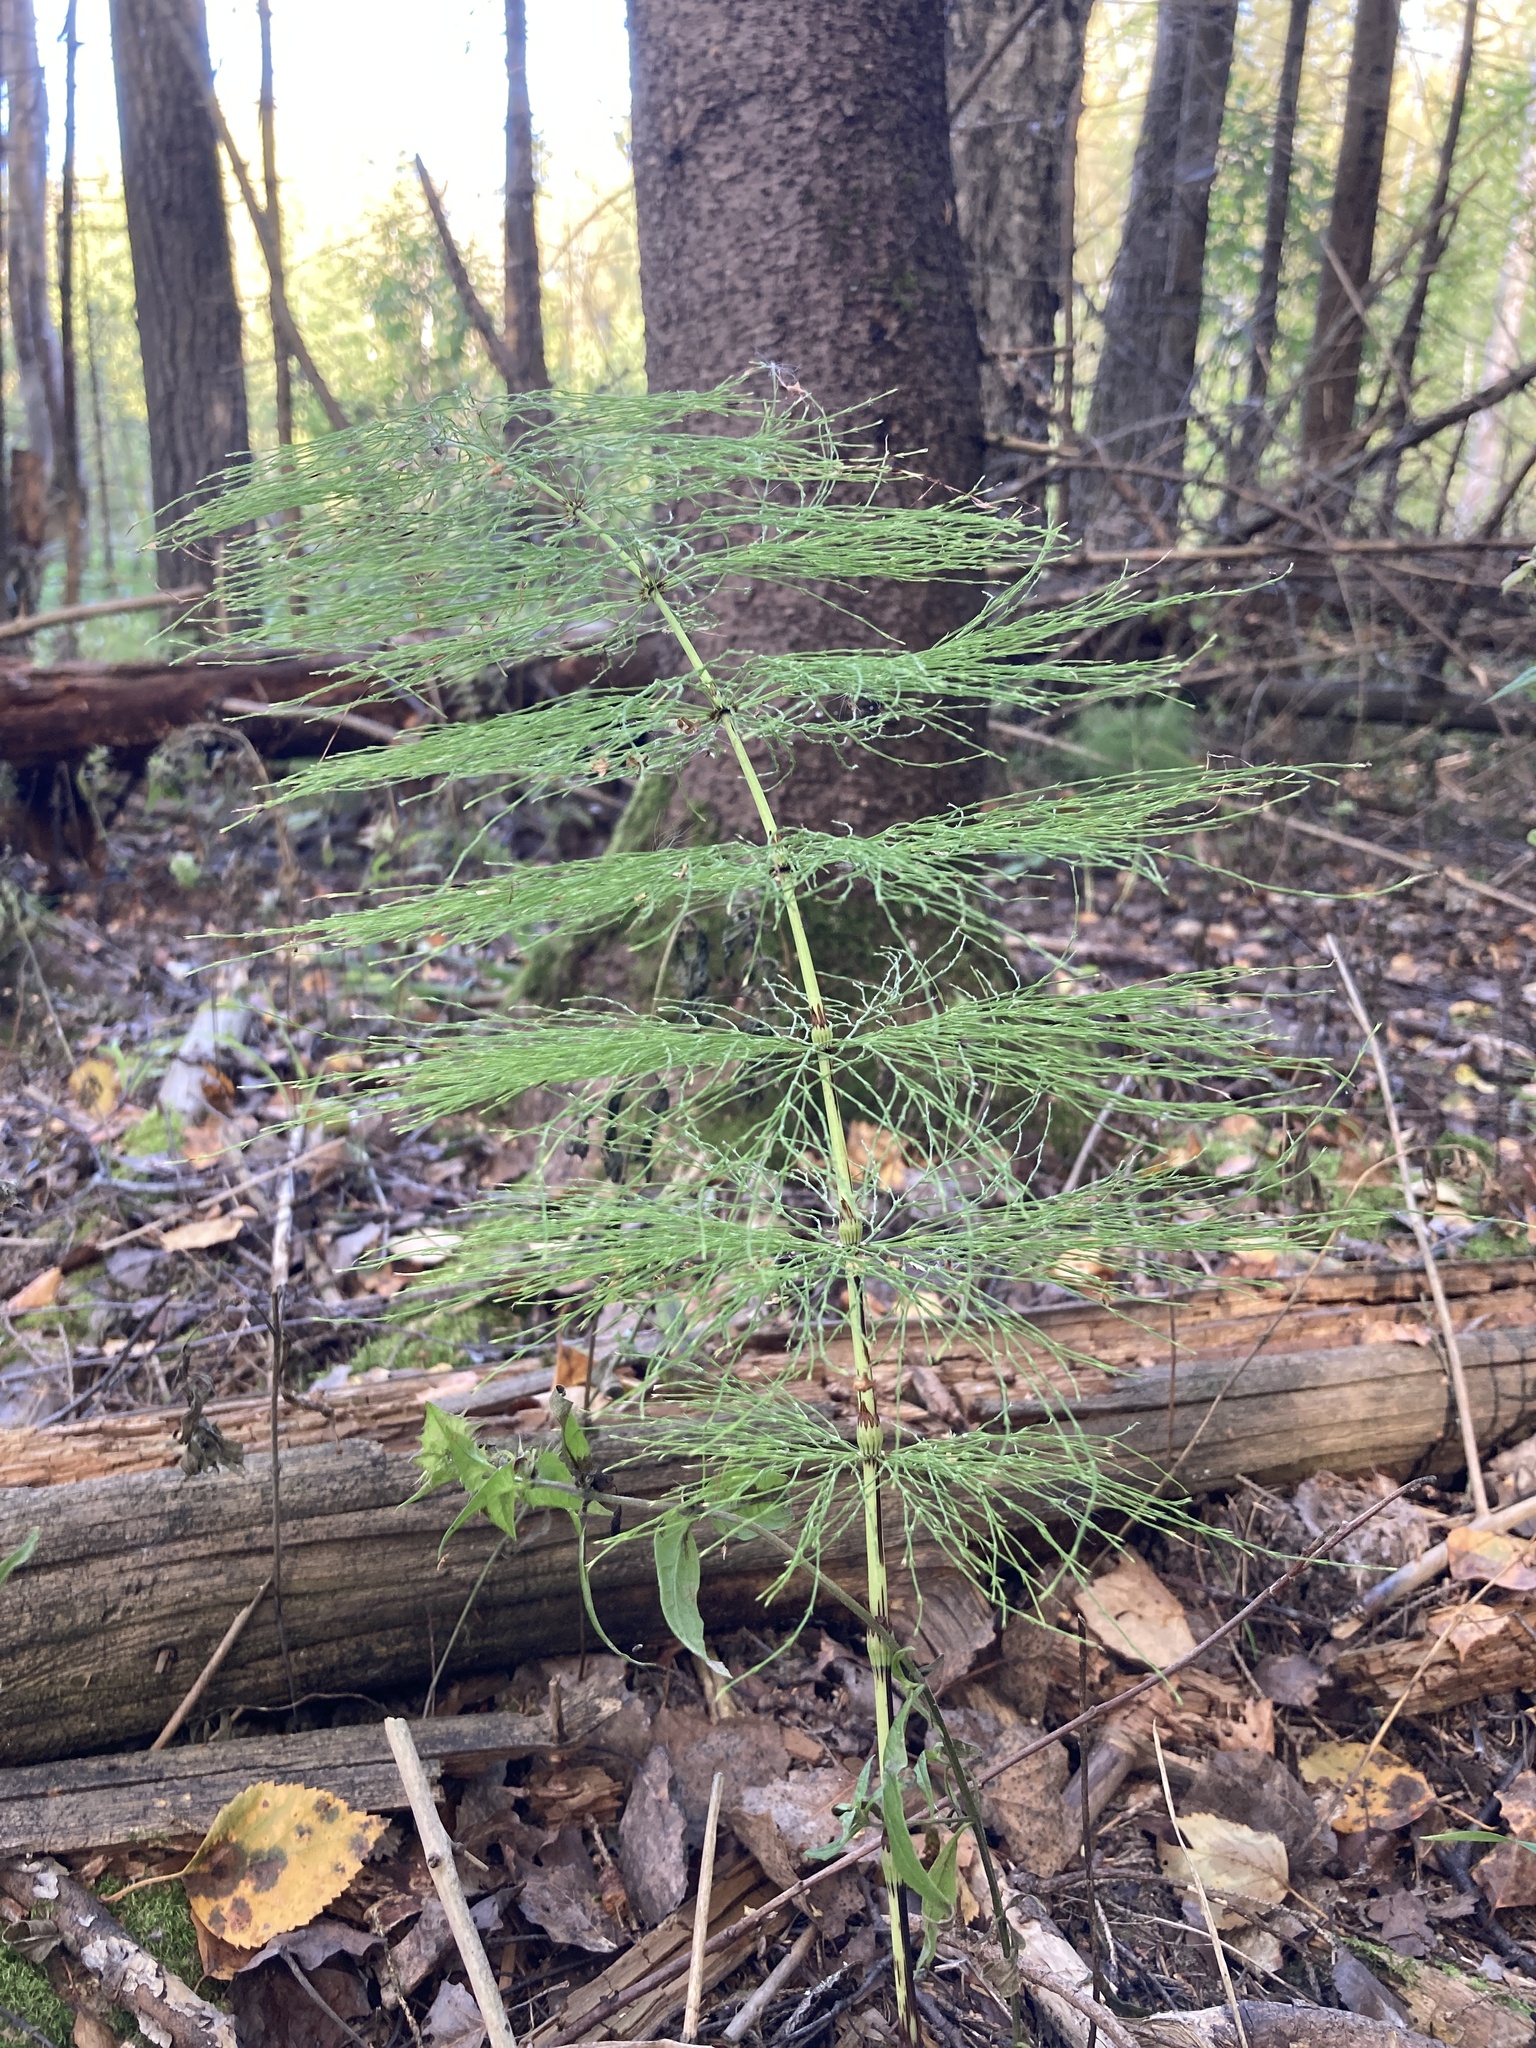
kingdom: Plantae
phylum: Tracheophyta
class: Polypodiopsida
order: Equisetales
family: Equisetaceae
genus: Equisetum
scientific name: Equisetum sylvaticum
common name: Wood horsetail
